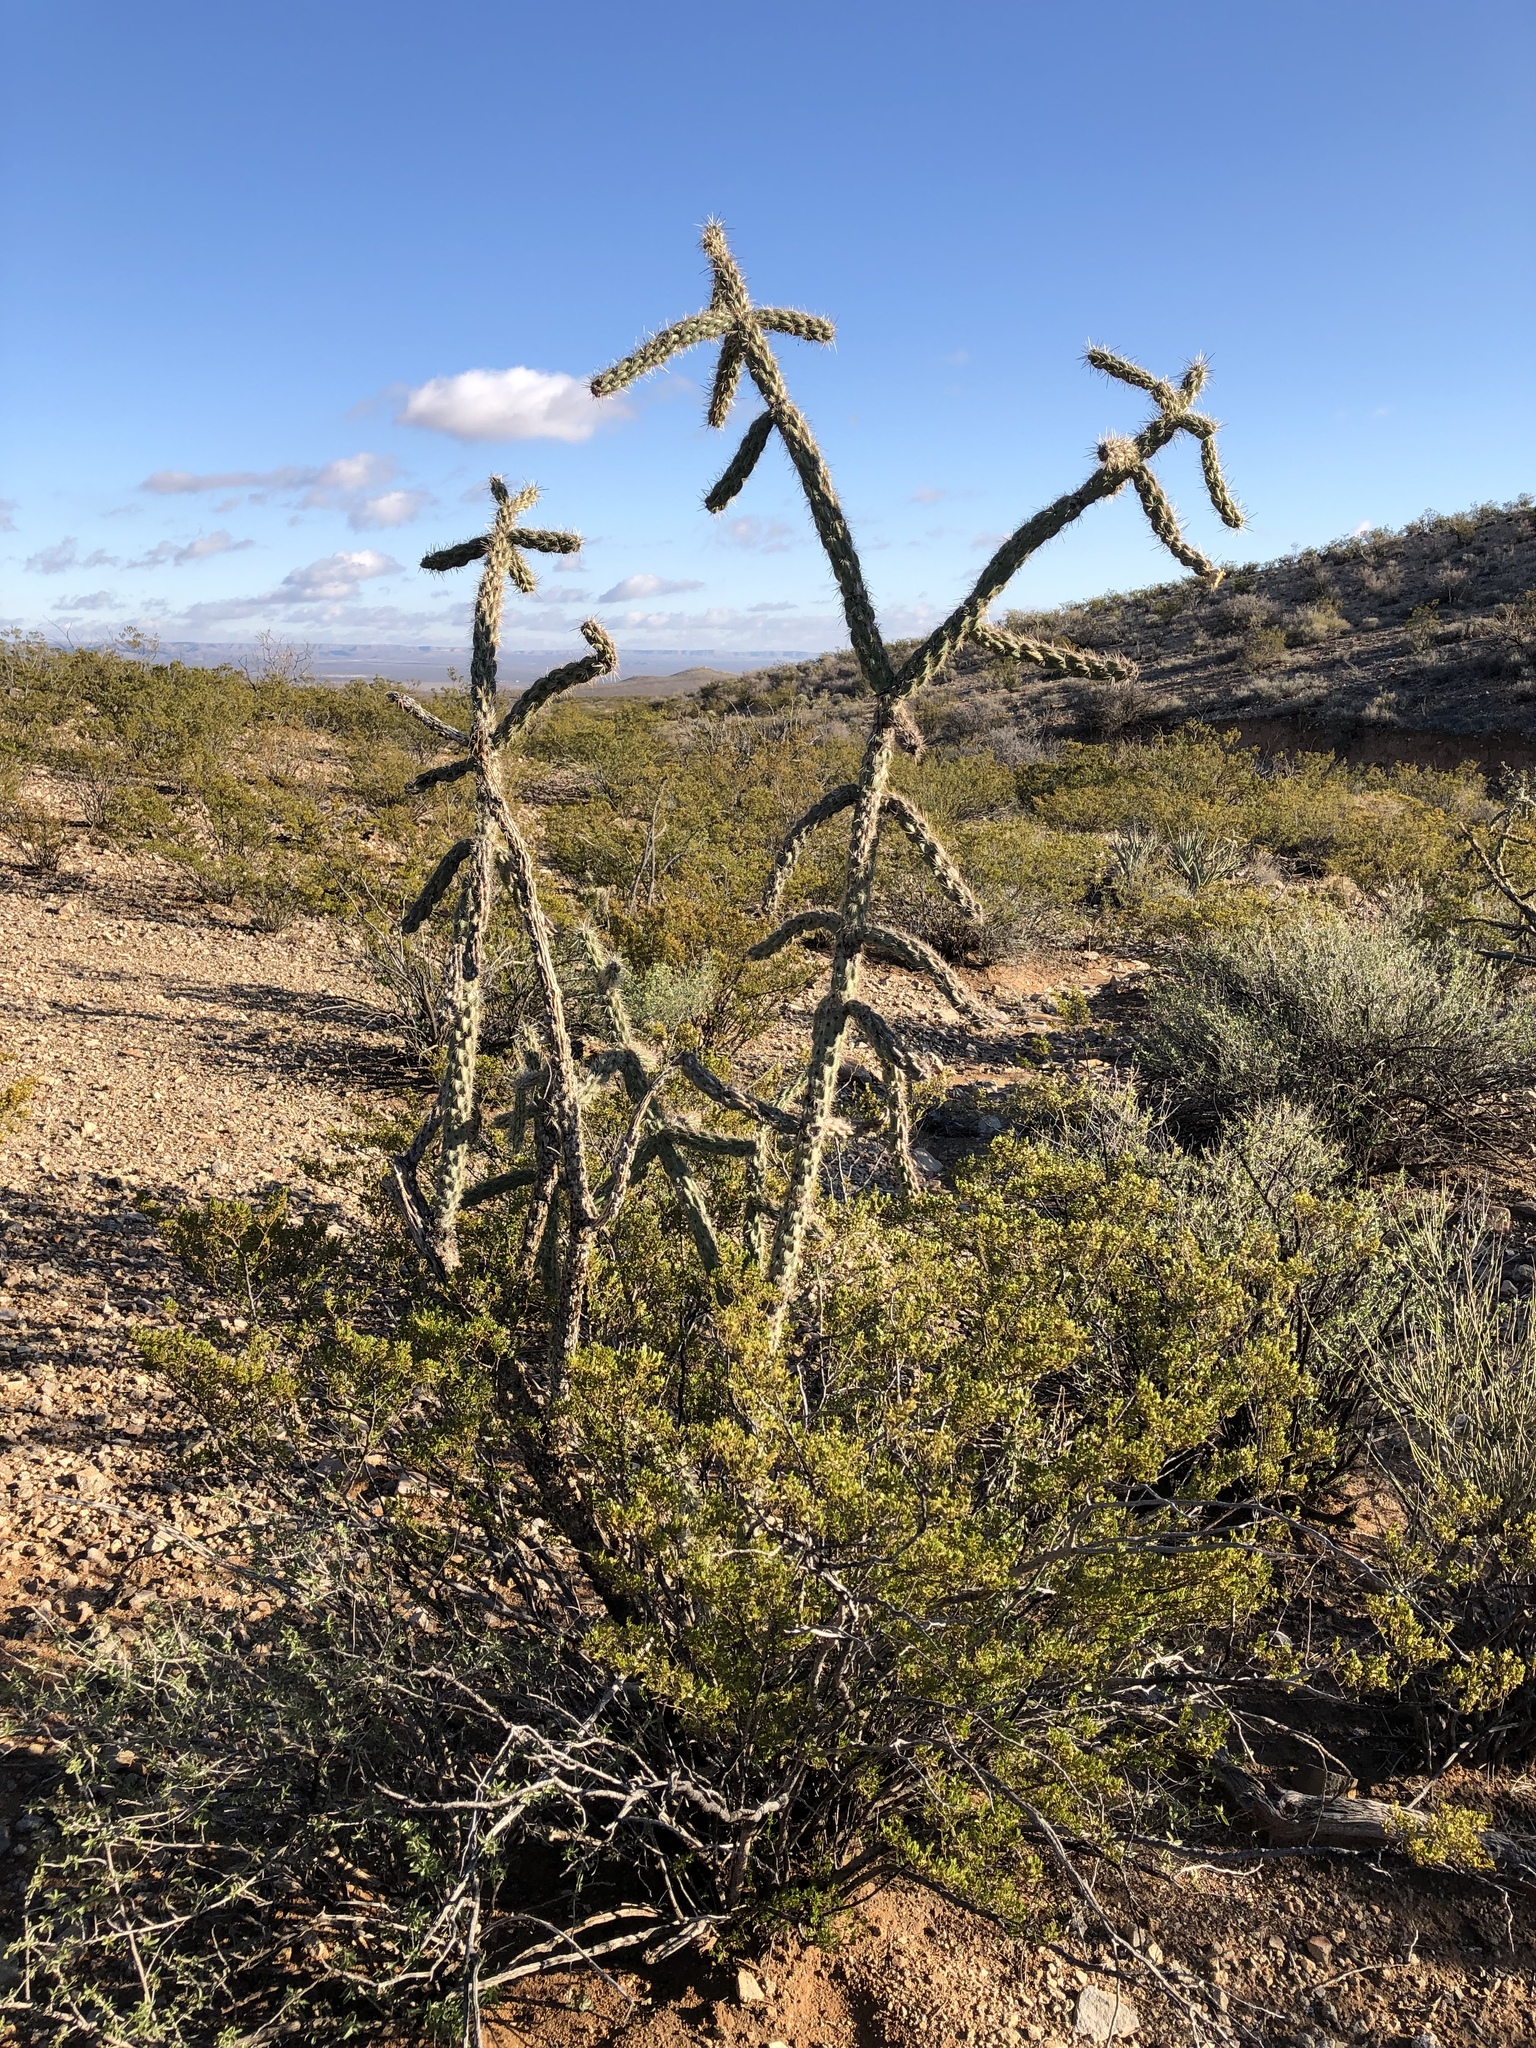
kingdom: Plantae
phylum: Tracheophyta
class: Magnoliopsida
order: Caryophyllales
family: Cactaceae
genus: Cylindropuntia
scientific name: Cylindropuntia imbricata
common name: Candelabrum cactus
